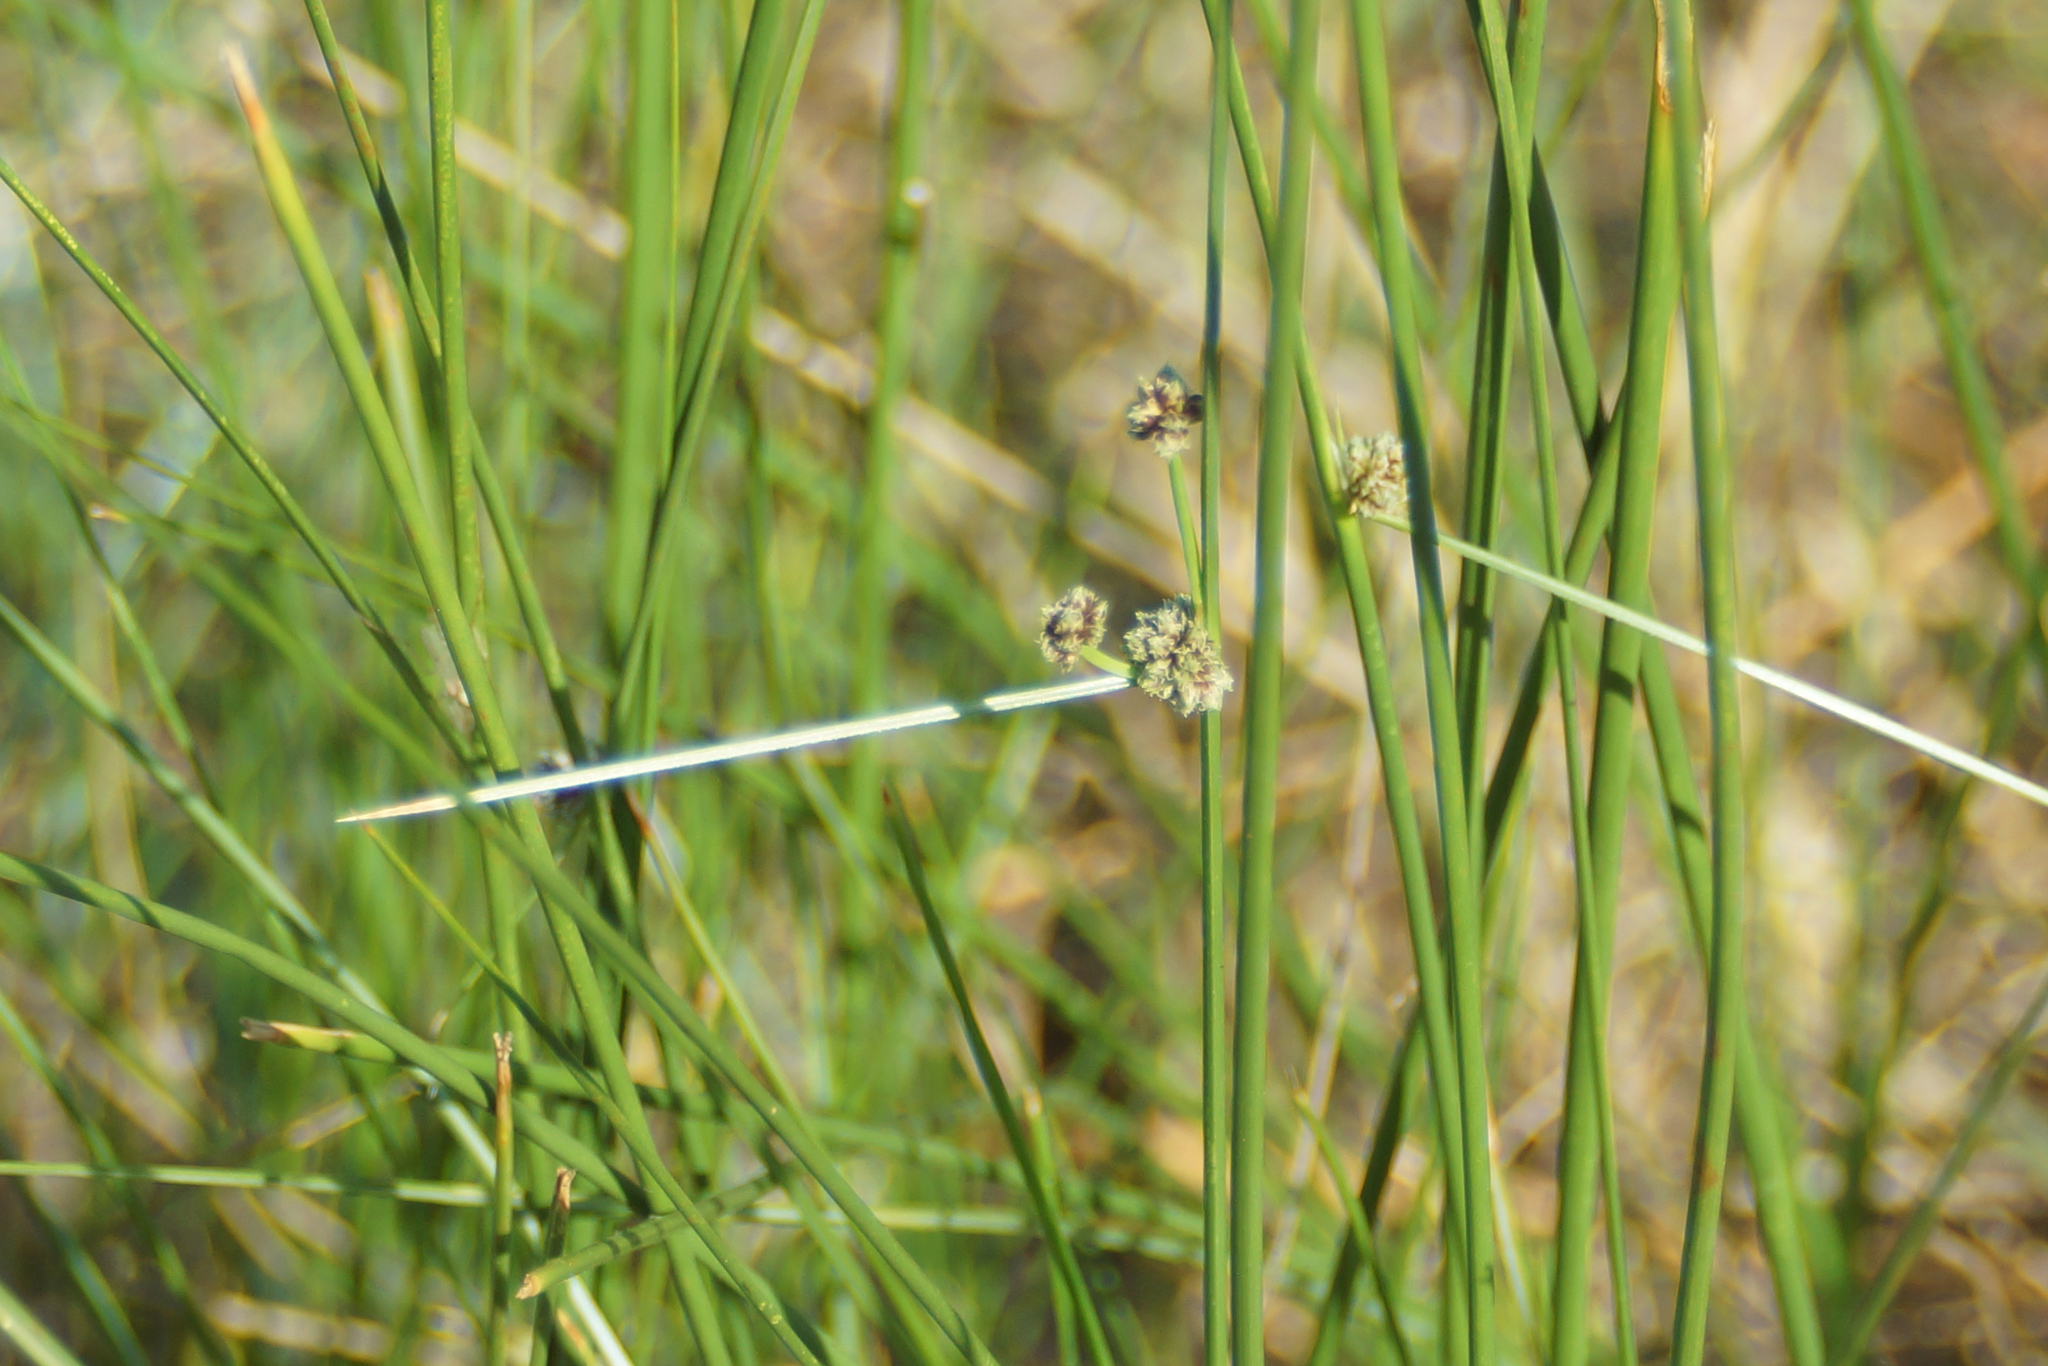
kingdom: Plantae
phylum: Tracheophyta
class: Liliopsida
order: Poales
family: Cyperaceae
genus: Scirpoides
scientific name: Scirpoides holoschoenus
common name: Round-headed club-rush
